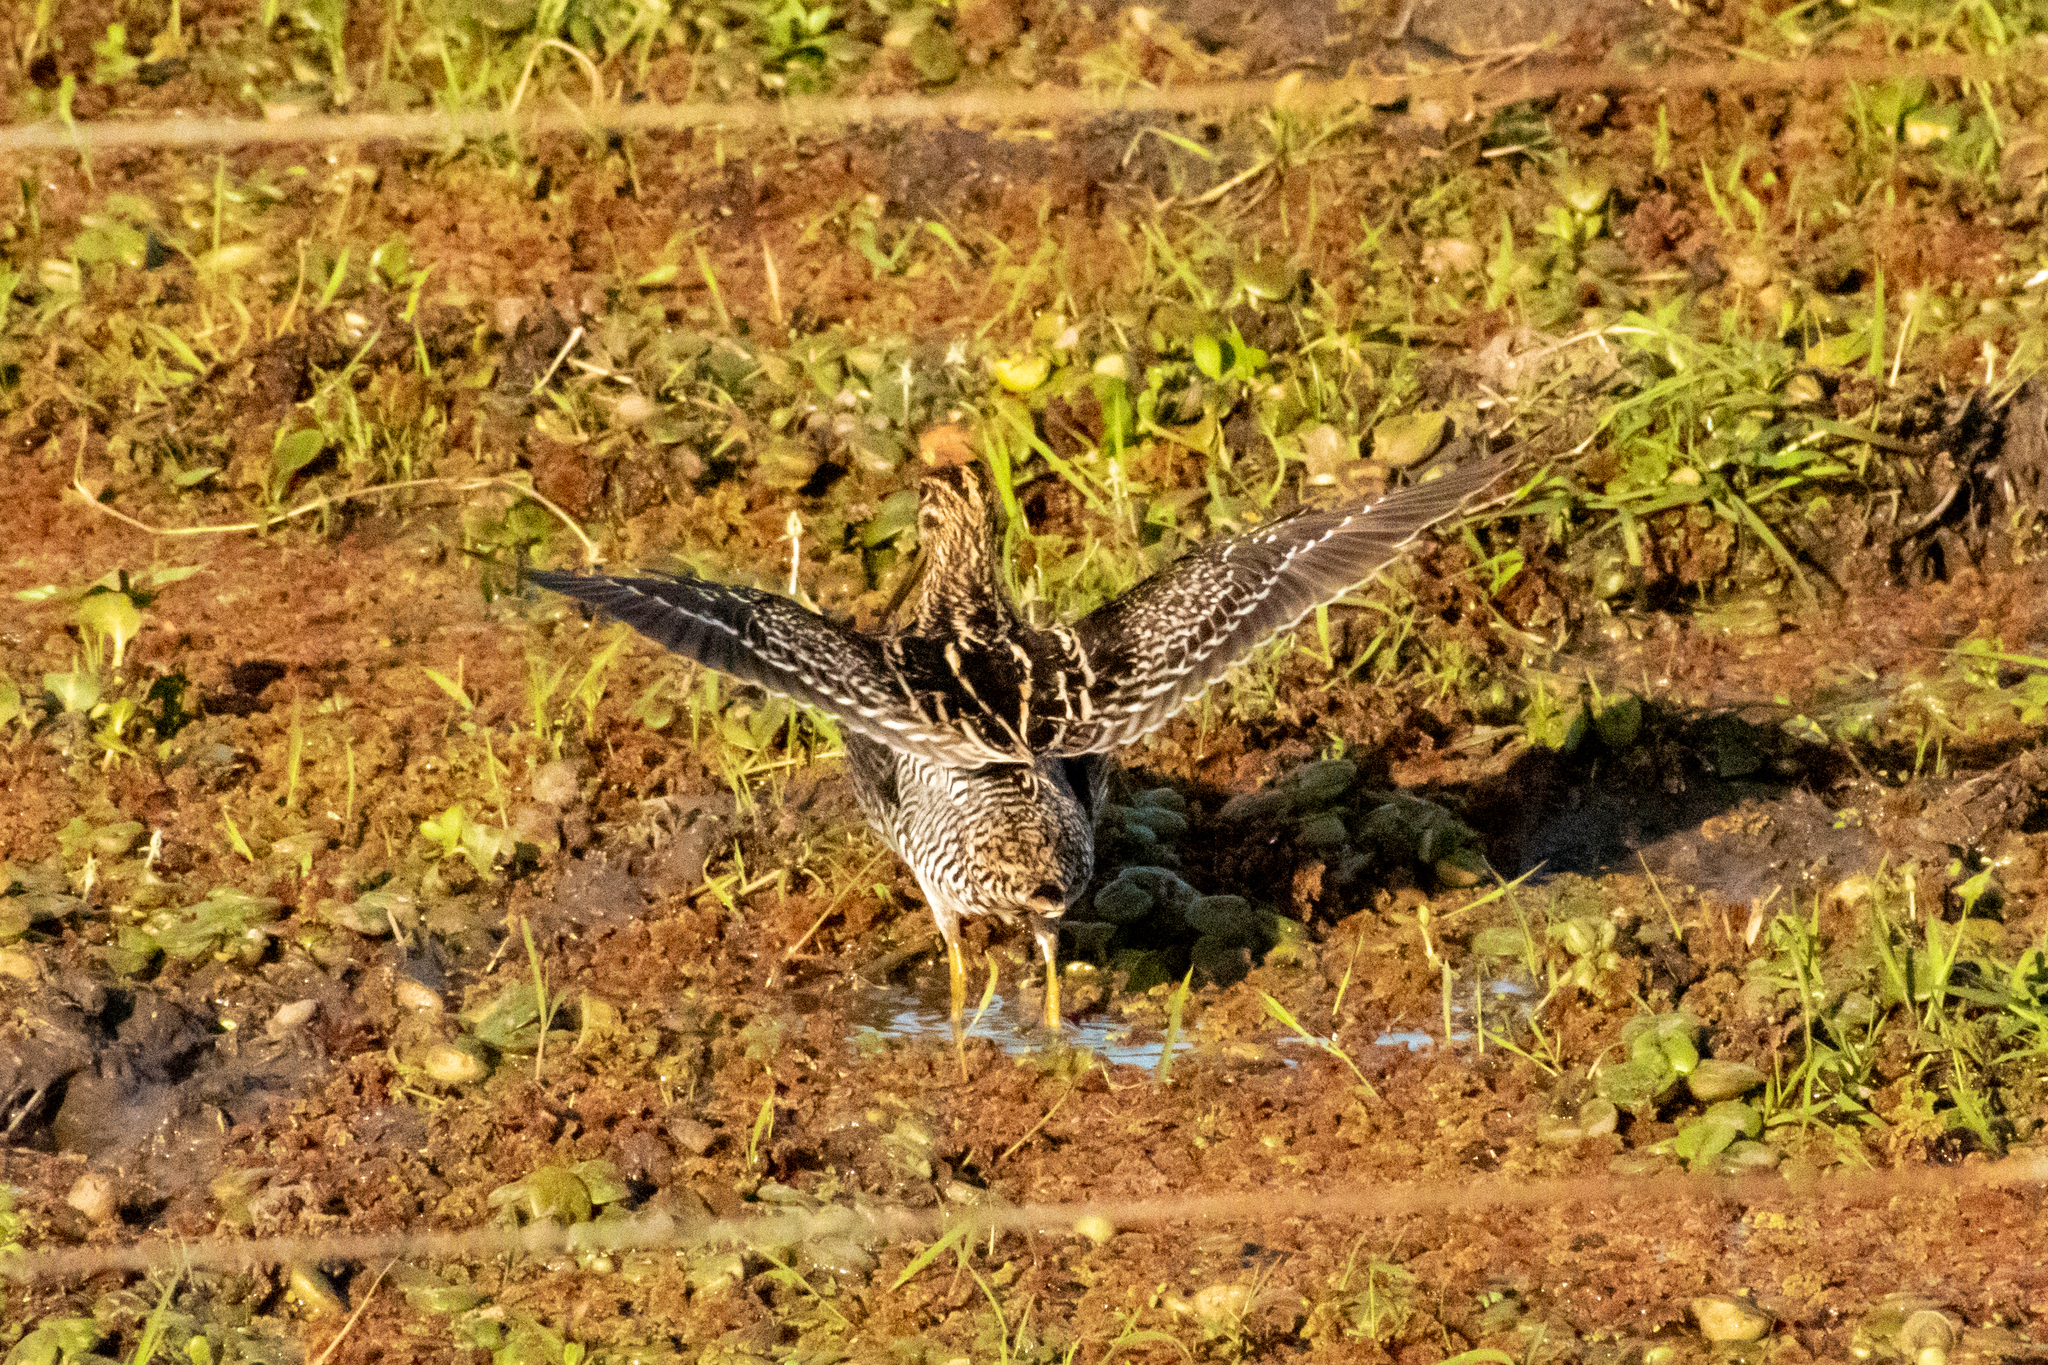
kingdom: Animalia
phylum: Chordata
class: Aves
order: Charadriiformes
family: Scolopacidae
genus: Gallinago
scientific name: Gallinago paraguaiae
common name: South american snipe
